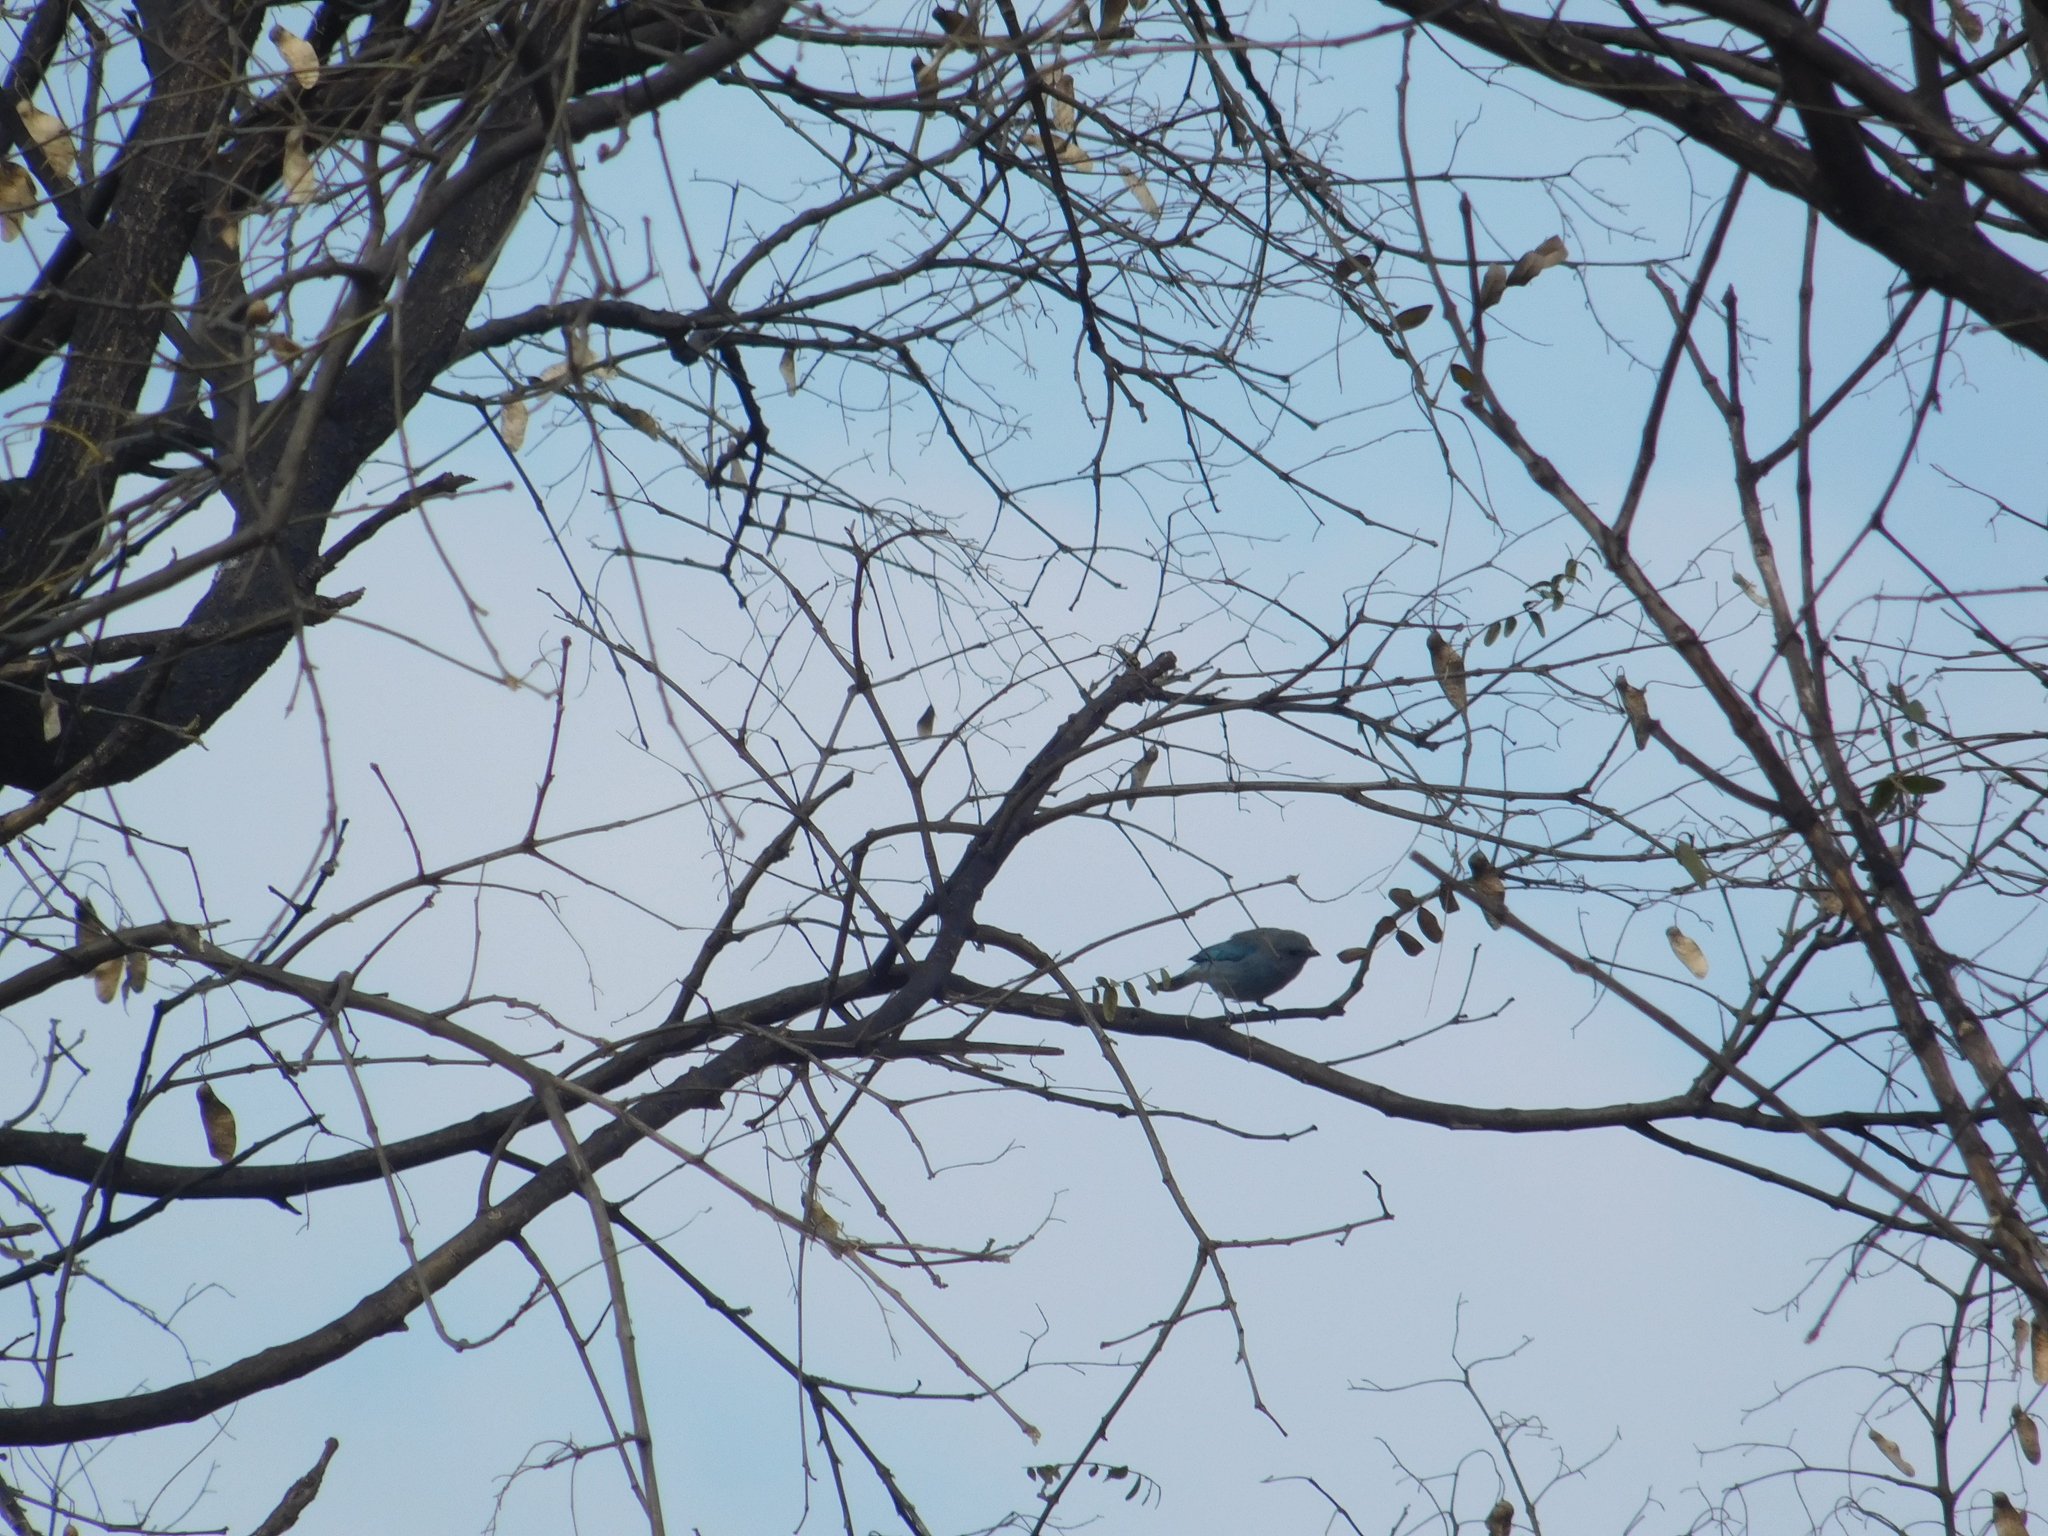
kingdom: Animalia
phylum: Chordata
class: Aves
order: Passeriformes
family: Thraupidae
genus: Thraupis
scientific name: Thraupis sayaca
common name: Sayaca tanager
